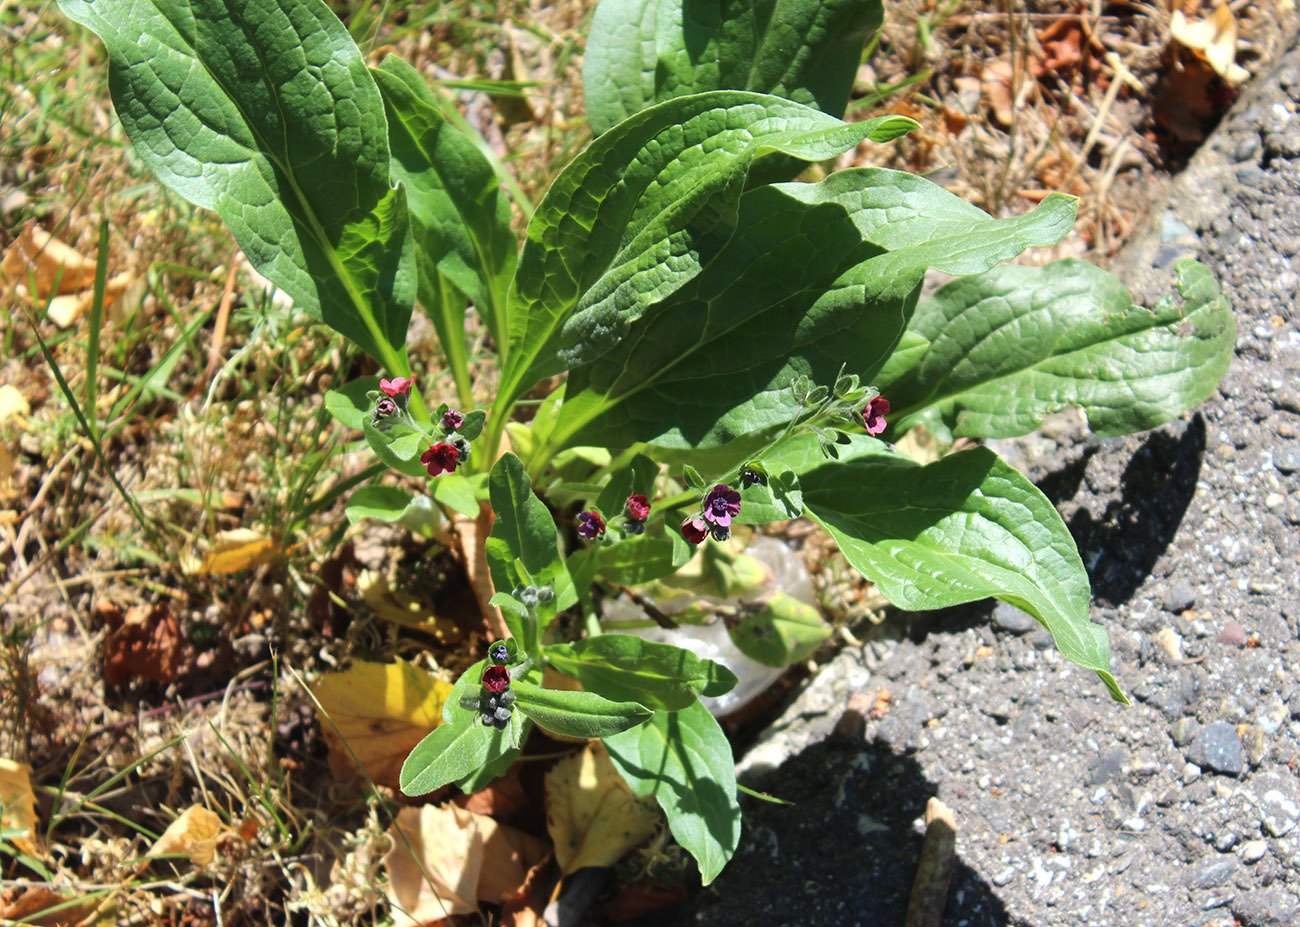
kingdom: Plantae
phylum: Tracheophyta
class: Magnoliopsida
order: Boraginales
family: Boraginaceae
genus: Cynoglossum
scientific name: Cynoglossum officinale
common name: Hound's-tongue
